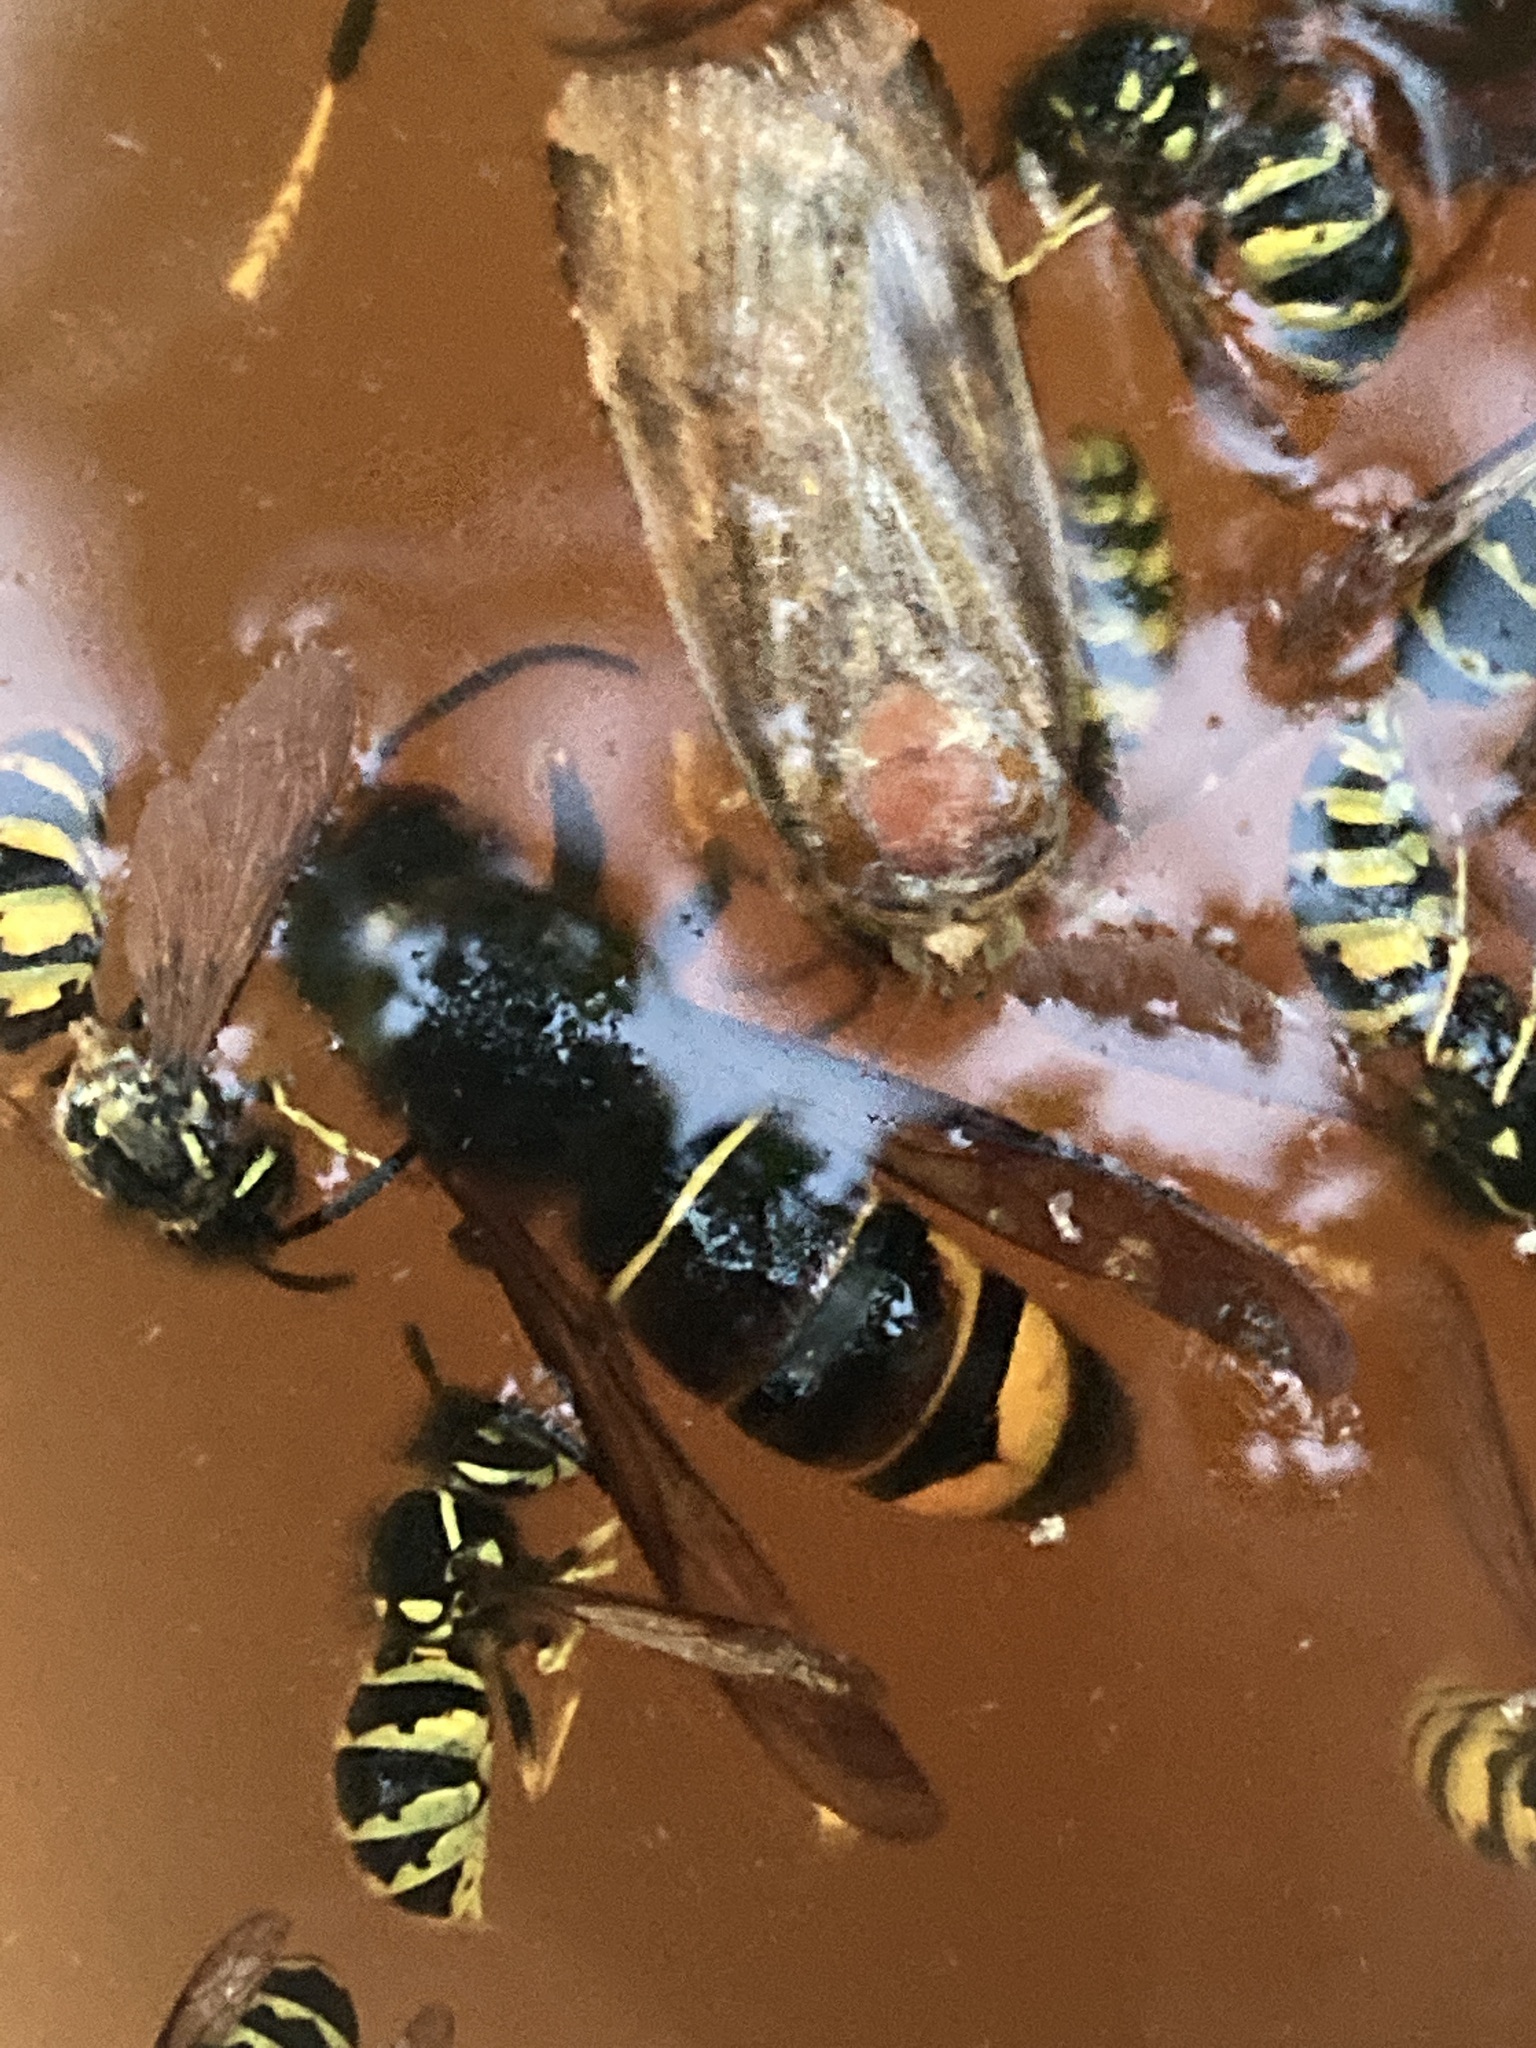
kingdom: Animalia
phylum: Arthropoda
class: Insecta
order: Hymenoptera
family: Vespidae
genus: Vespa
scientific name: Vespa velutina
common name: Asian hornet
